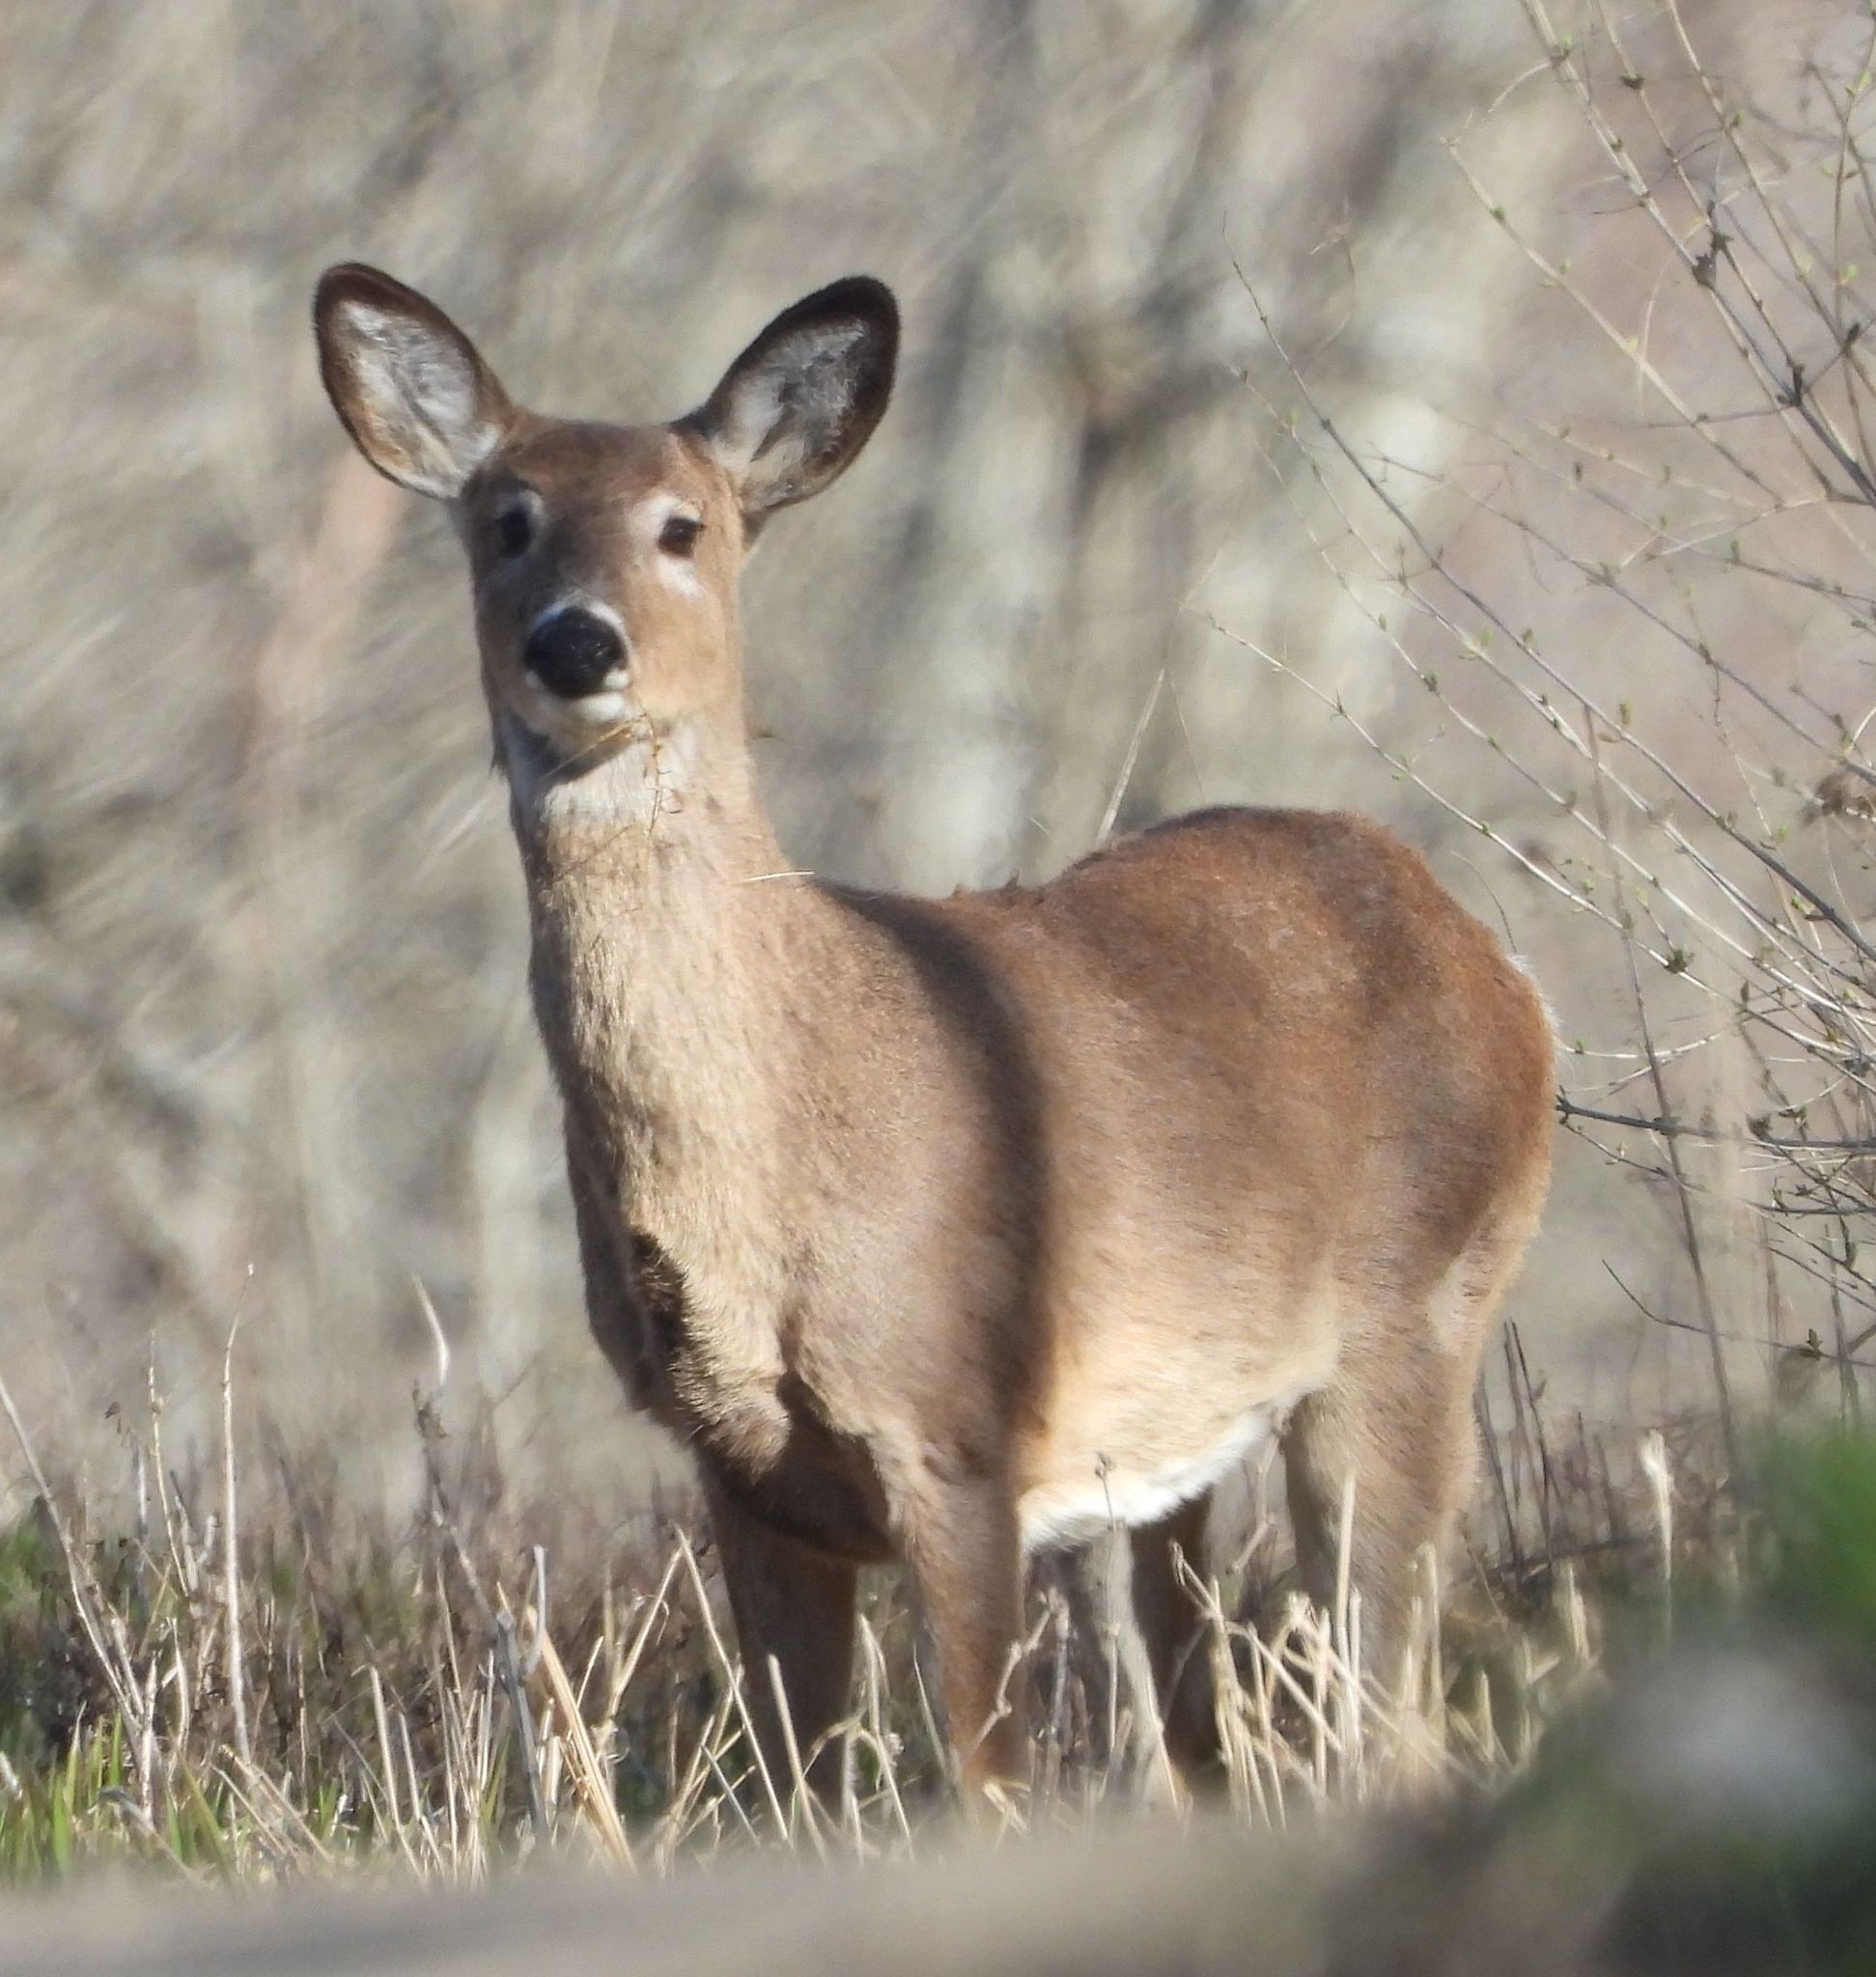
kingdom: Animalia
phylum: Chordata
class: Mammalia
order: Artiodactyla
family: Cervidae
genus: Odocoileus
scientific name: Odocoileus virginianus
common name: White-tailed deer
